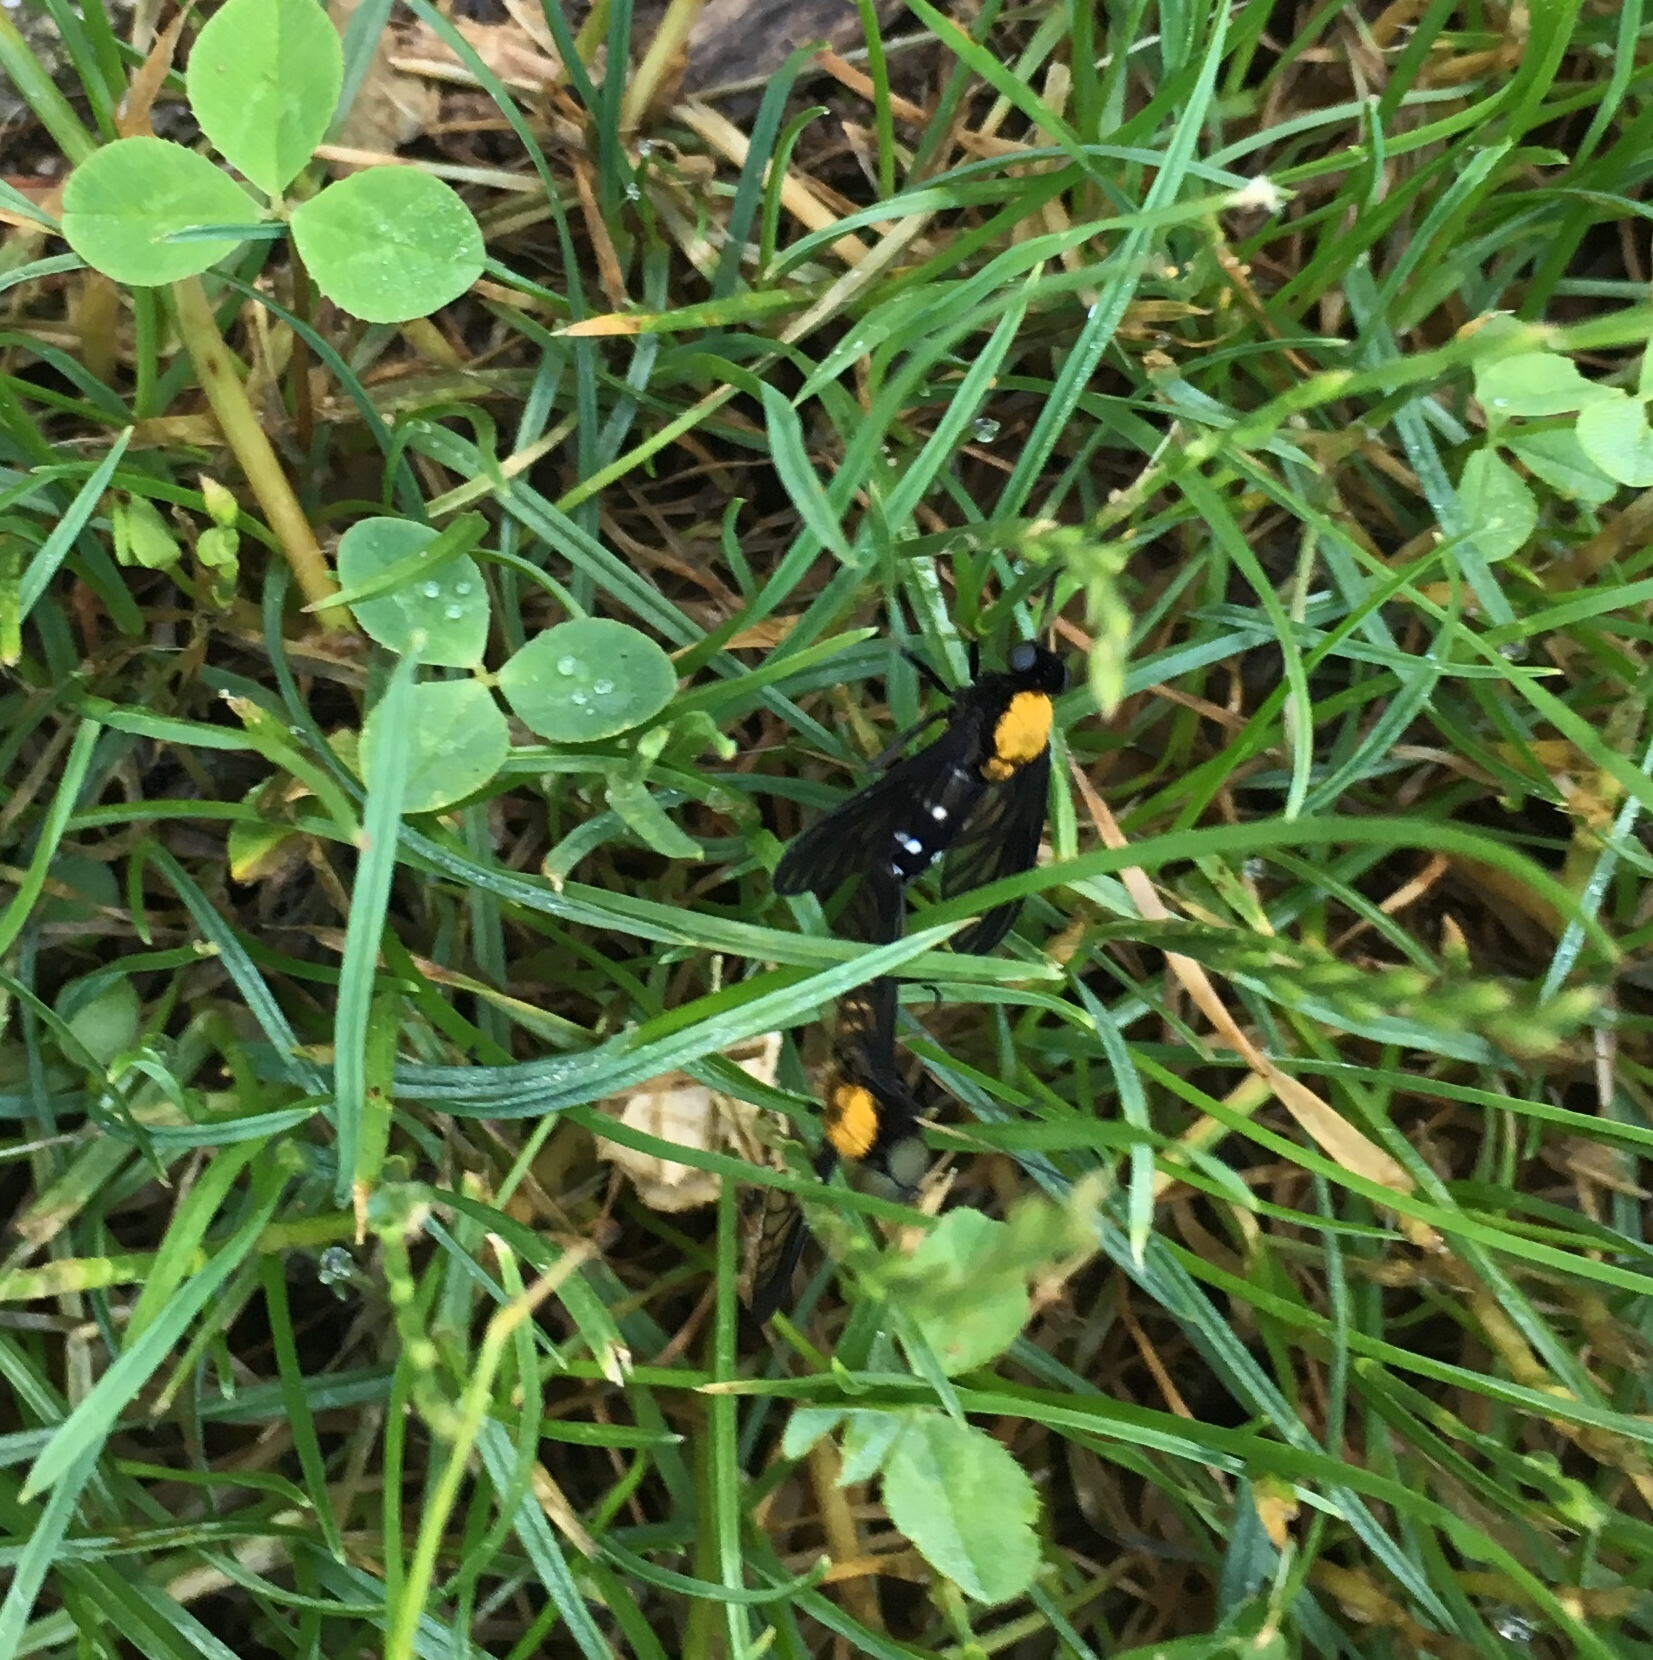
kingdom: Animalia
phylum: Arthropoda
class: Insecta
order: Diptera
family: Rhagionidae
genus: Chrysopilus
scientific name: Chrysopilus thoracicus
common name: Golden-backed snipe fly
